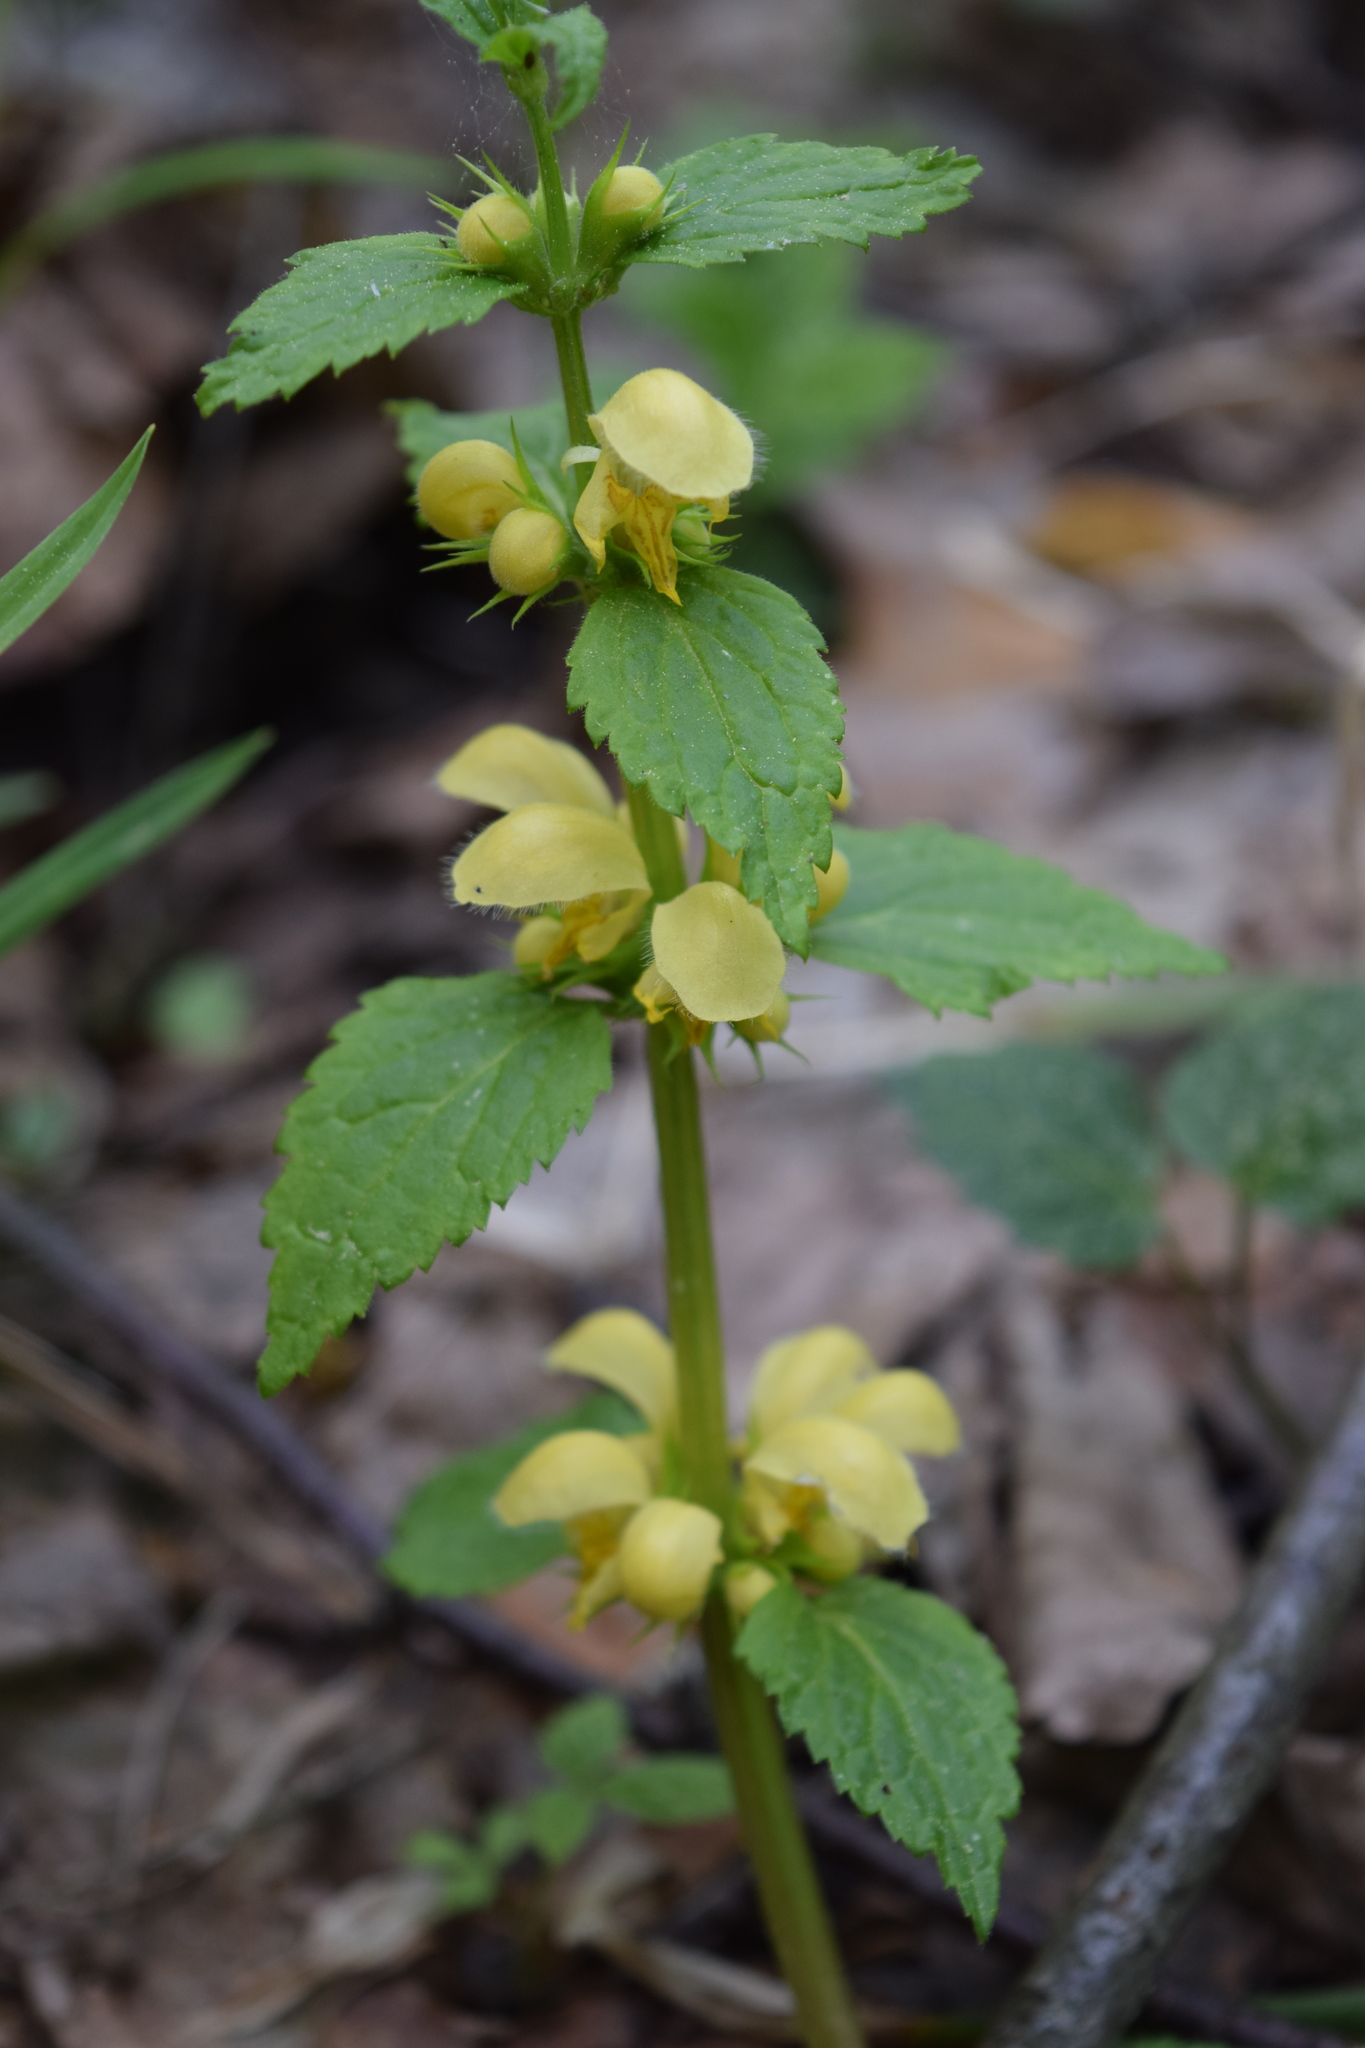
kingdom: Plantae
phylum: Tracheophyta
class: Magnoliopsida
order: Lamiales
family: Lamiaceae
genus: Lamium
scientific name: Lamium galeobdolon
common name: Yellow archangel
